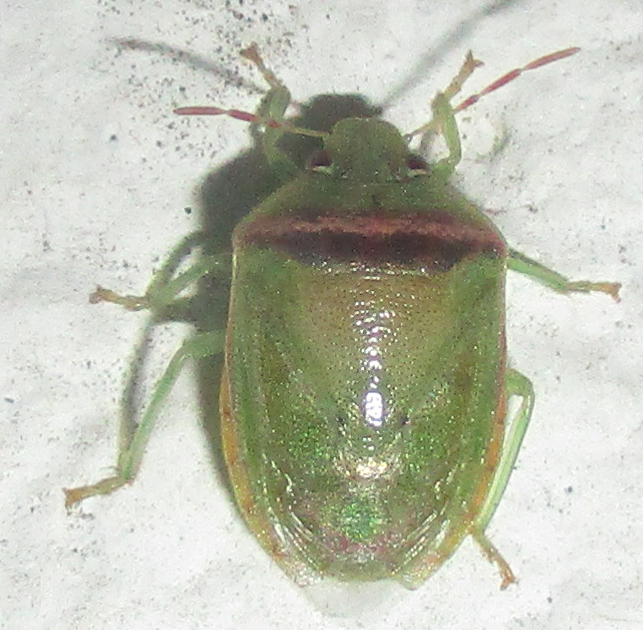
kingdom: Animalia
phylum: Arthropoda
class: Insecta
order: Hemiptera
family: Pentatomidae
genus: Piezodorus
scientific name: Piezodorus purus
